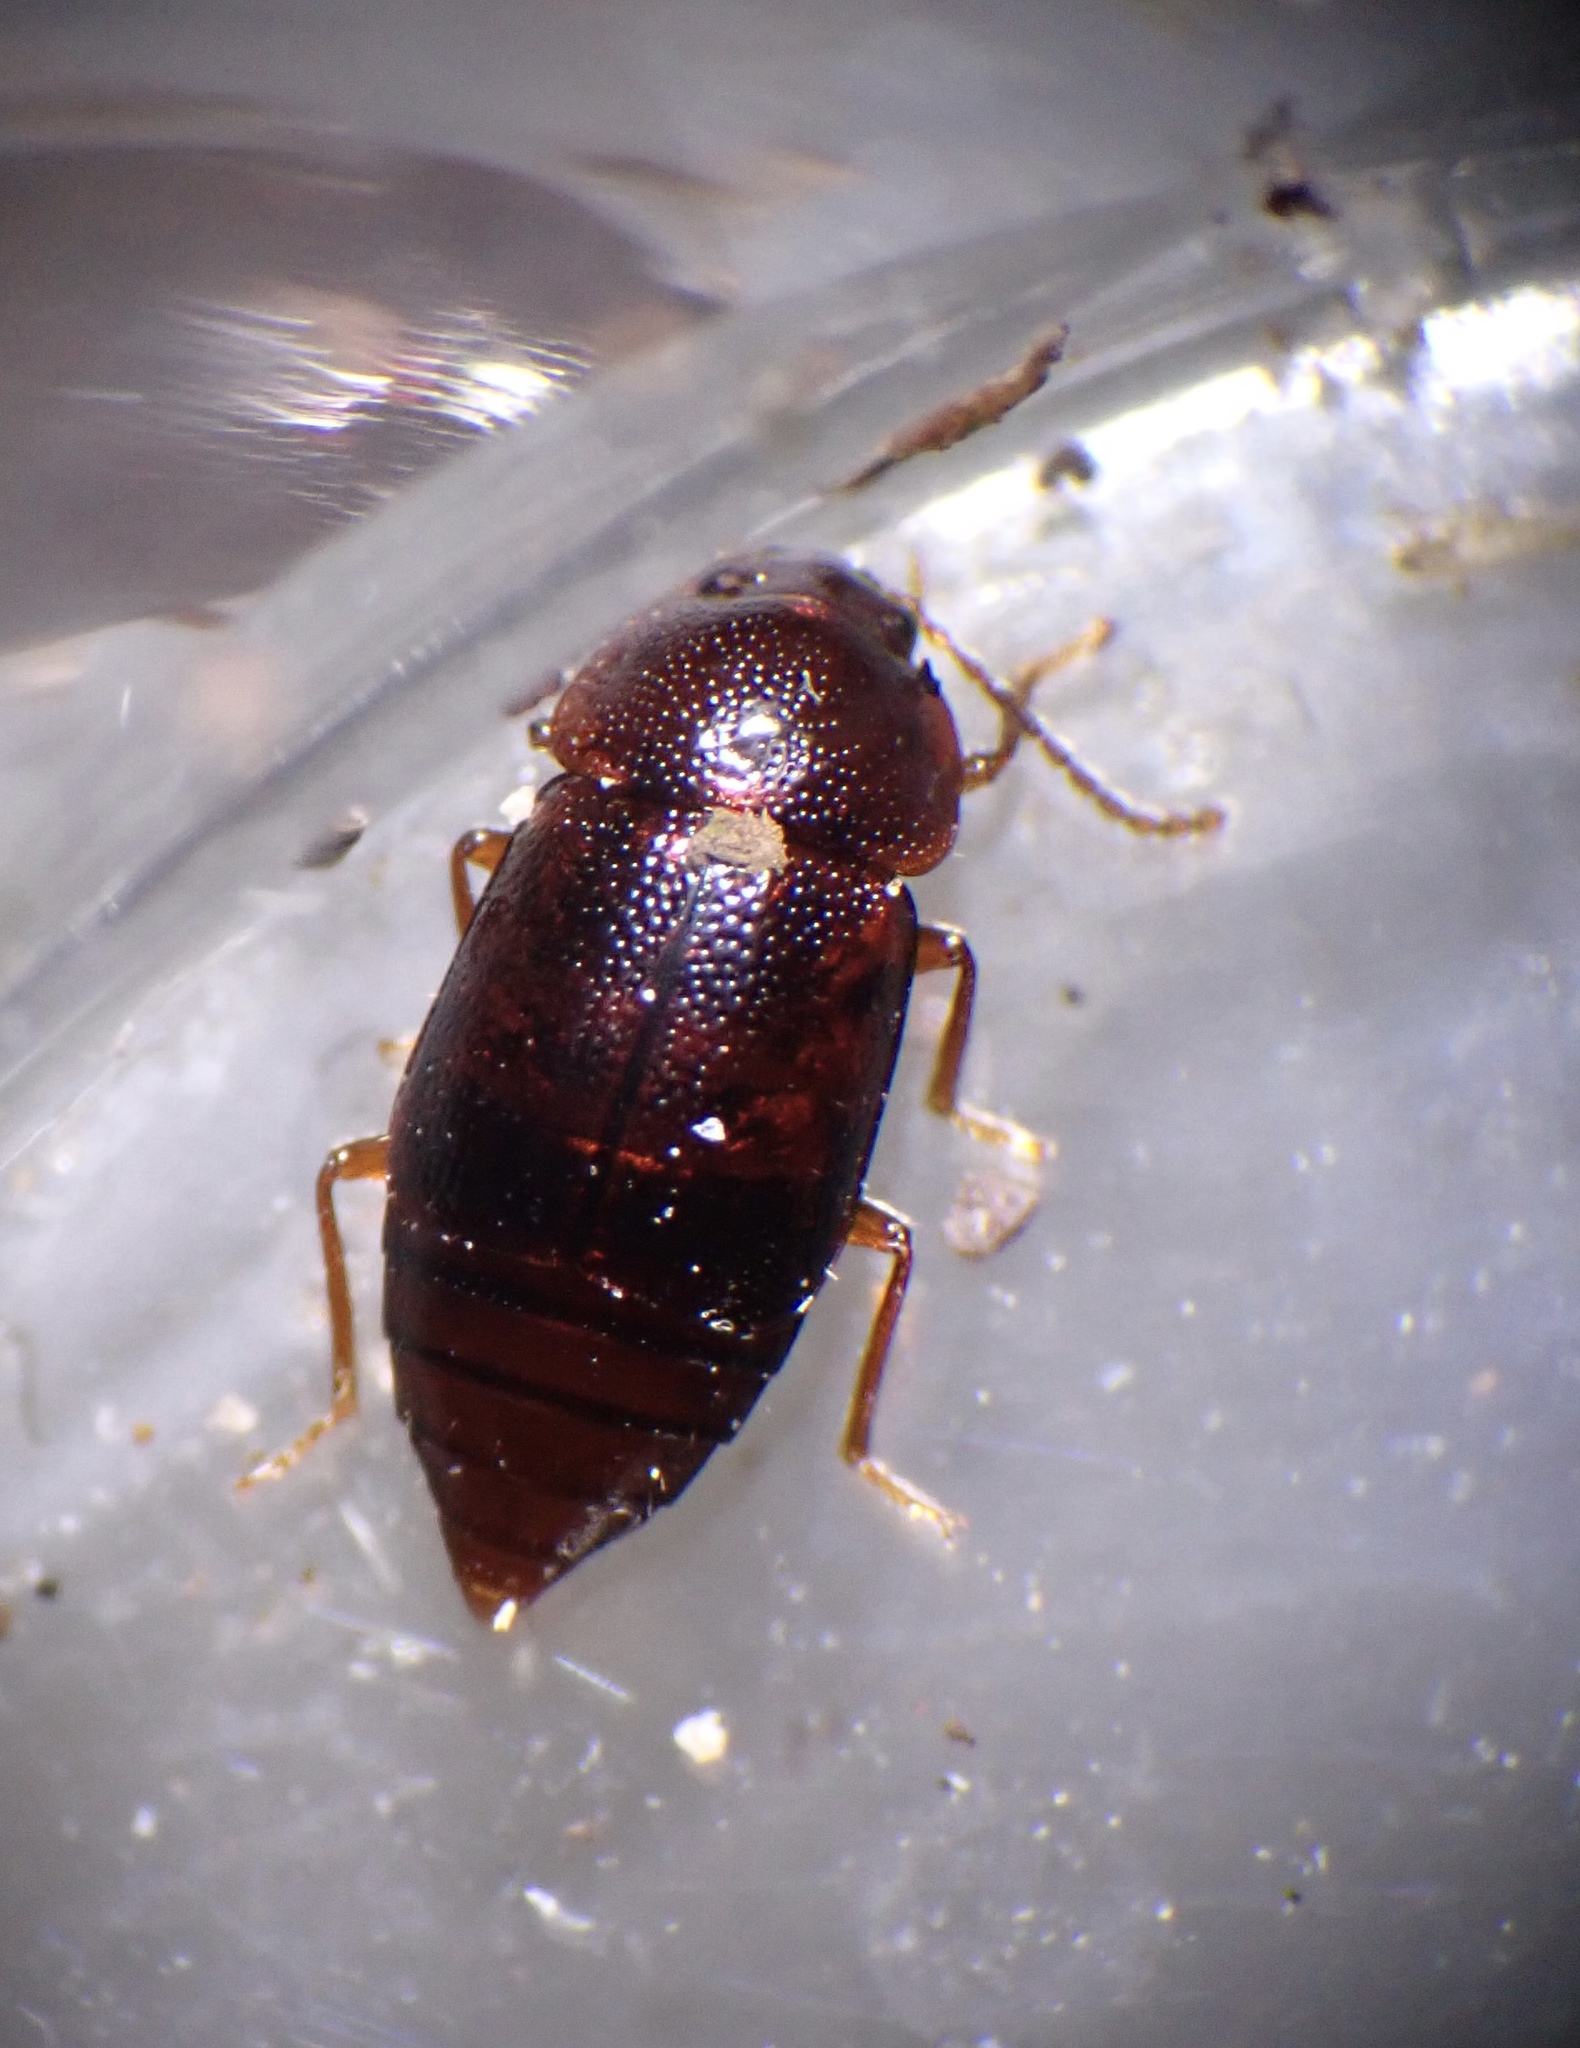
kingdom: Animalia
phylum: Arthropoda
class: Insecta
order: Coleoptera
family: Staphylinidae
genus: Olophrum
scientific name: Olophrum piceum
